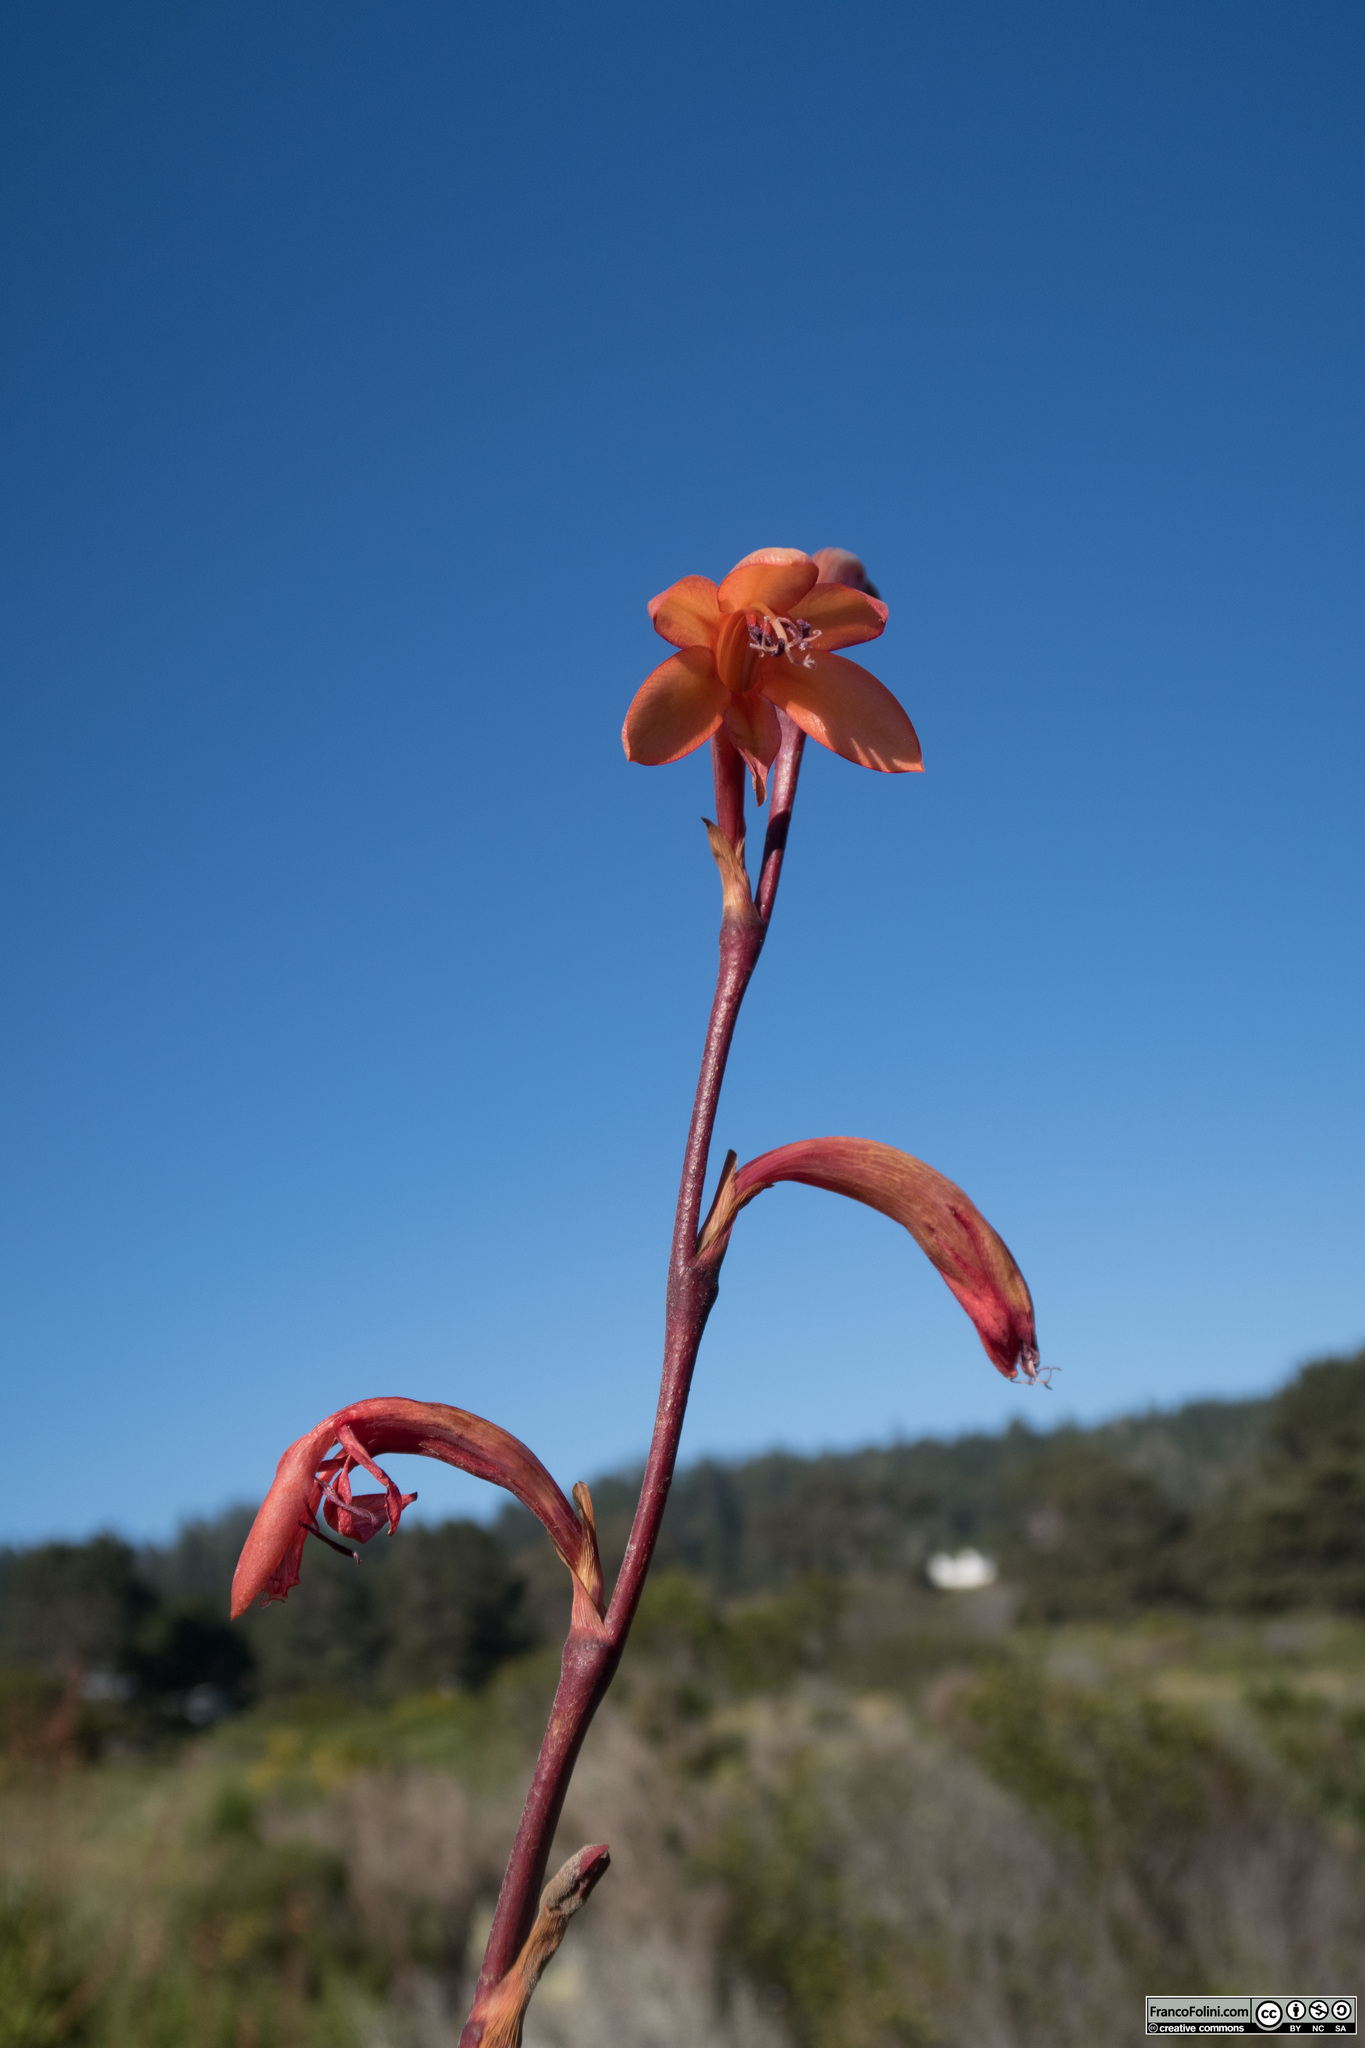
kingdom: Plantae
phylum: Tracheophyta
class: Liliopsida
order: Asparagales
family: Iridaceae
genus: Watsonia
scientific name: Watsonia meriana
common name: Bulbil bugle-lily
